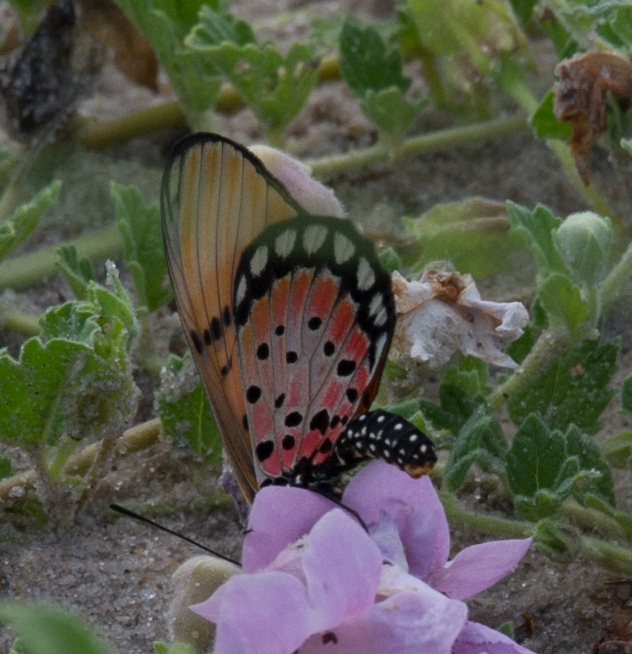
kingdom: Animalia
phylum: Arthropoda
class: Insecta
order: Lepidoptera
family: Nymphalidae
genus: Stephenia
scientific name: Stephenia
